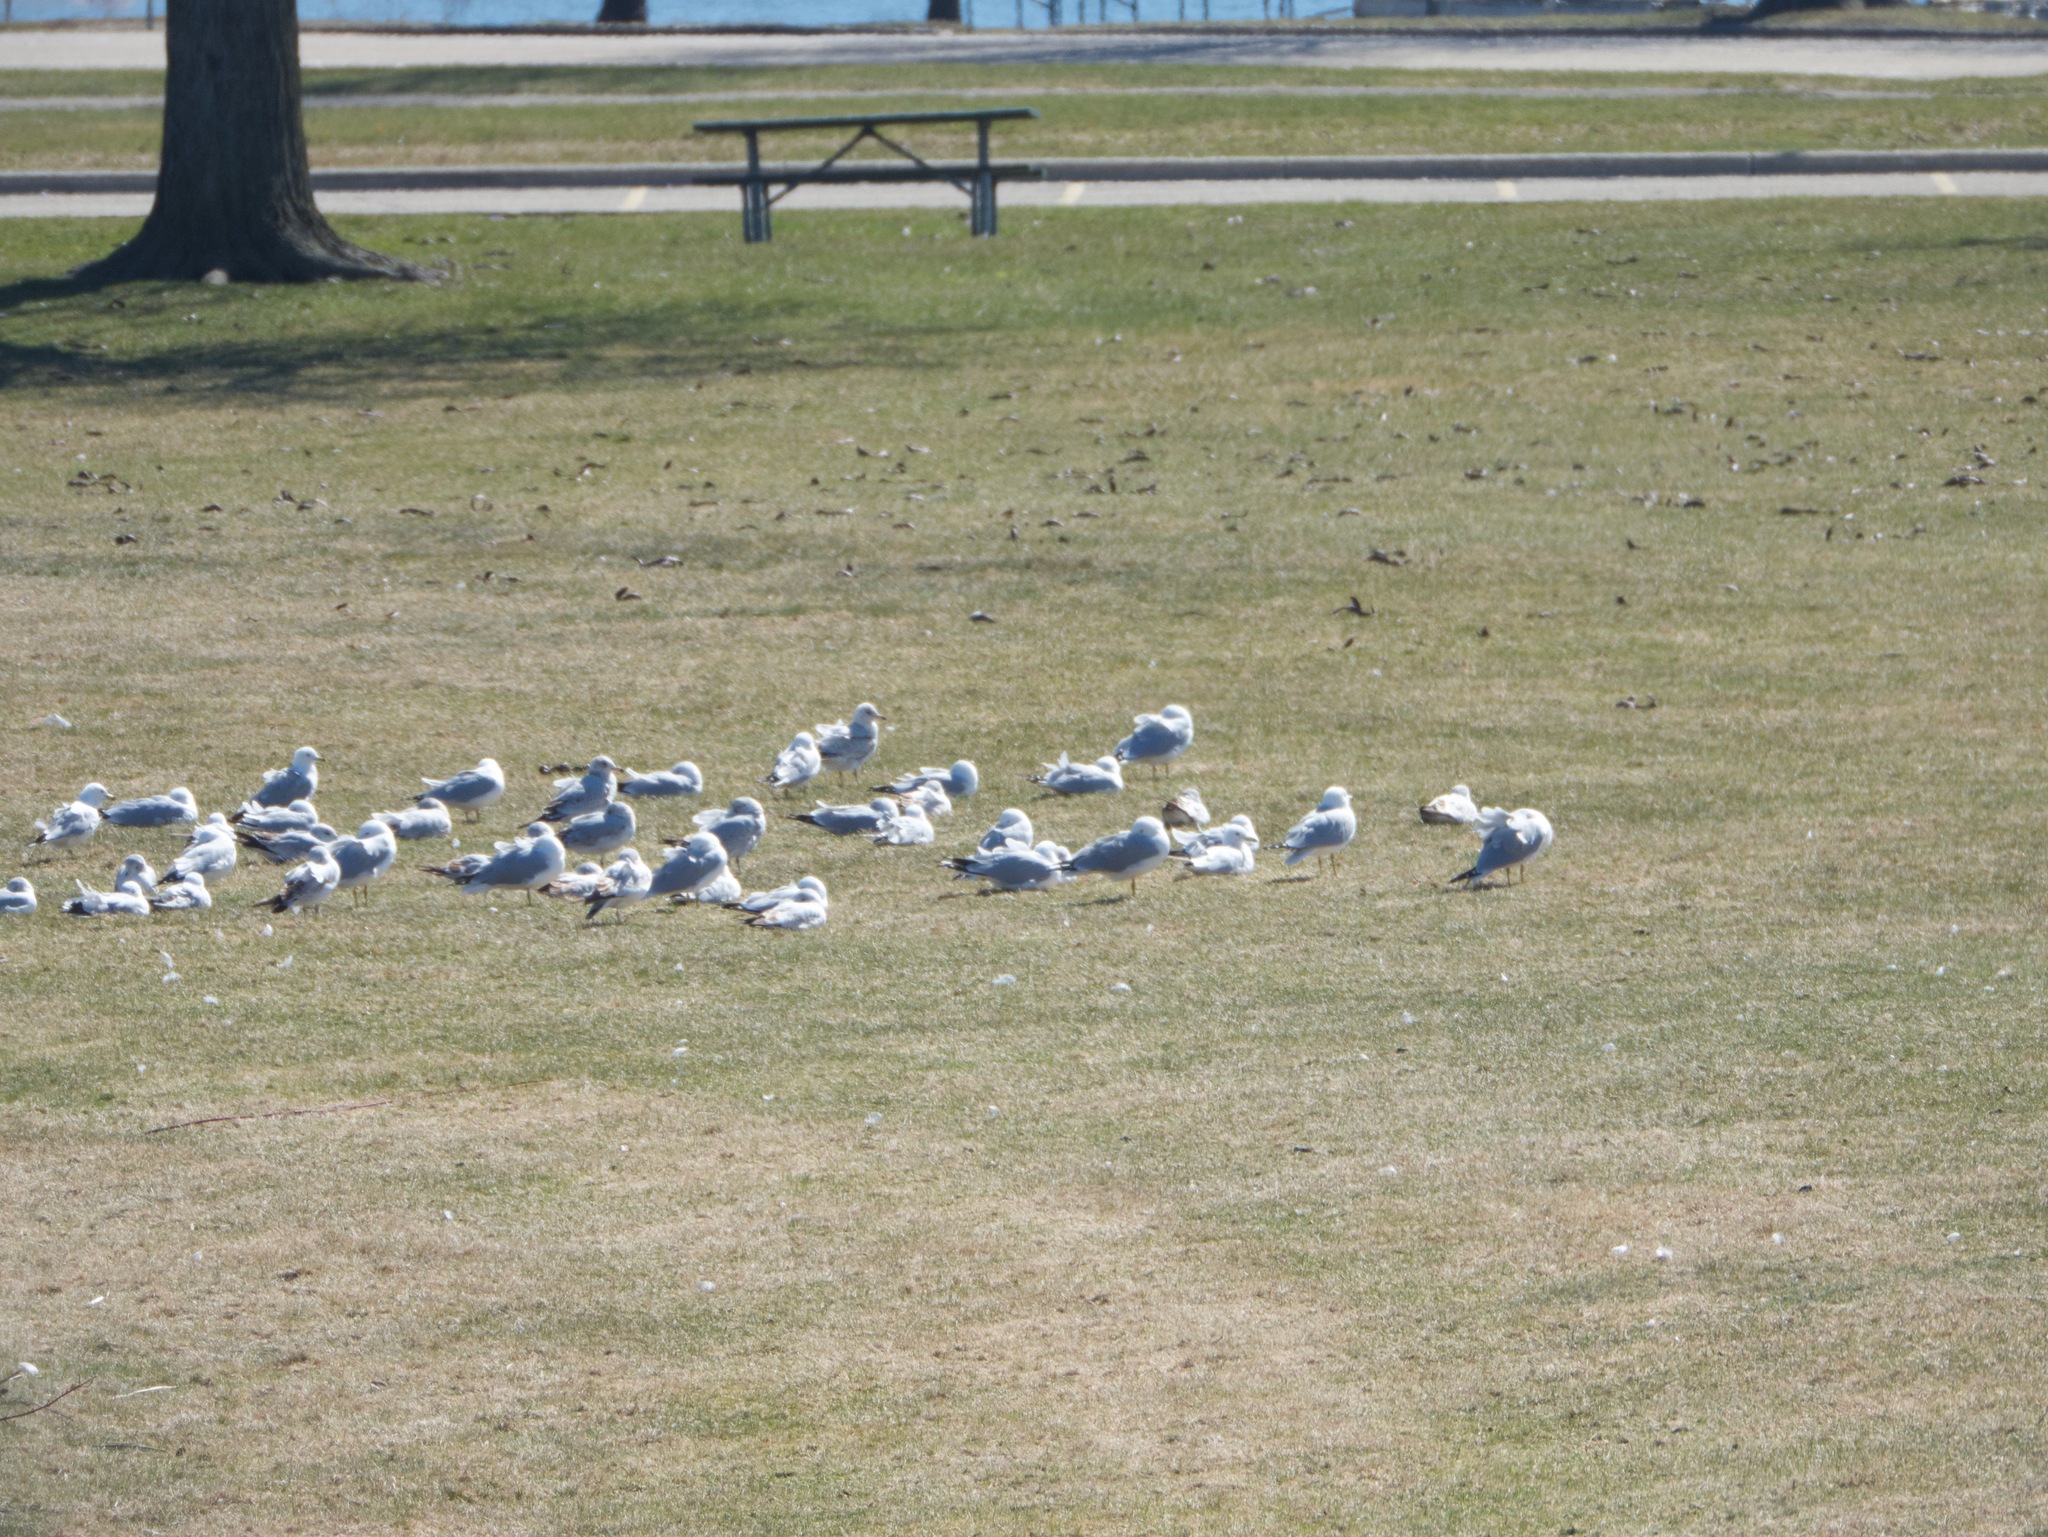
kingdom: Animalia
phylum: Chordata
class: Aves
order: Charadriiformes
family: Laridae
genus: Larus
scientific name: Larus delawarensis
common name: Ring-billed gull
